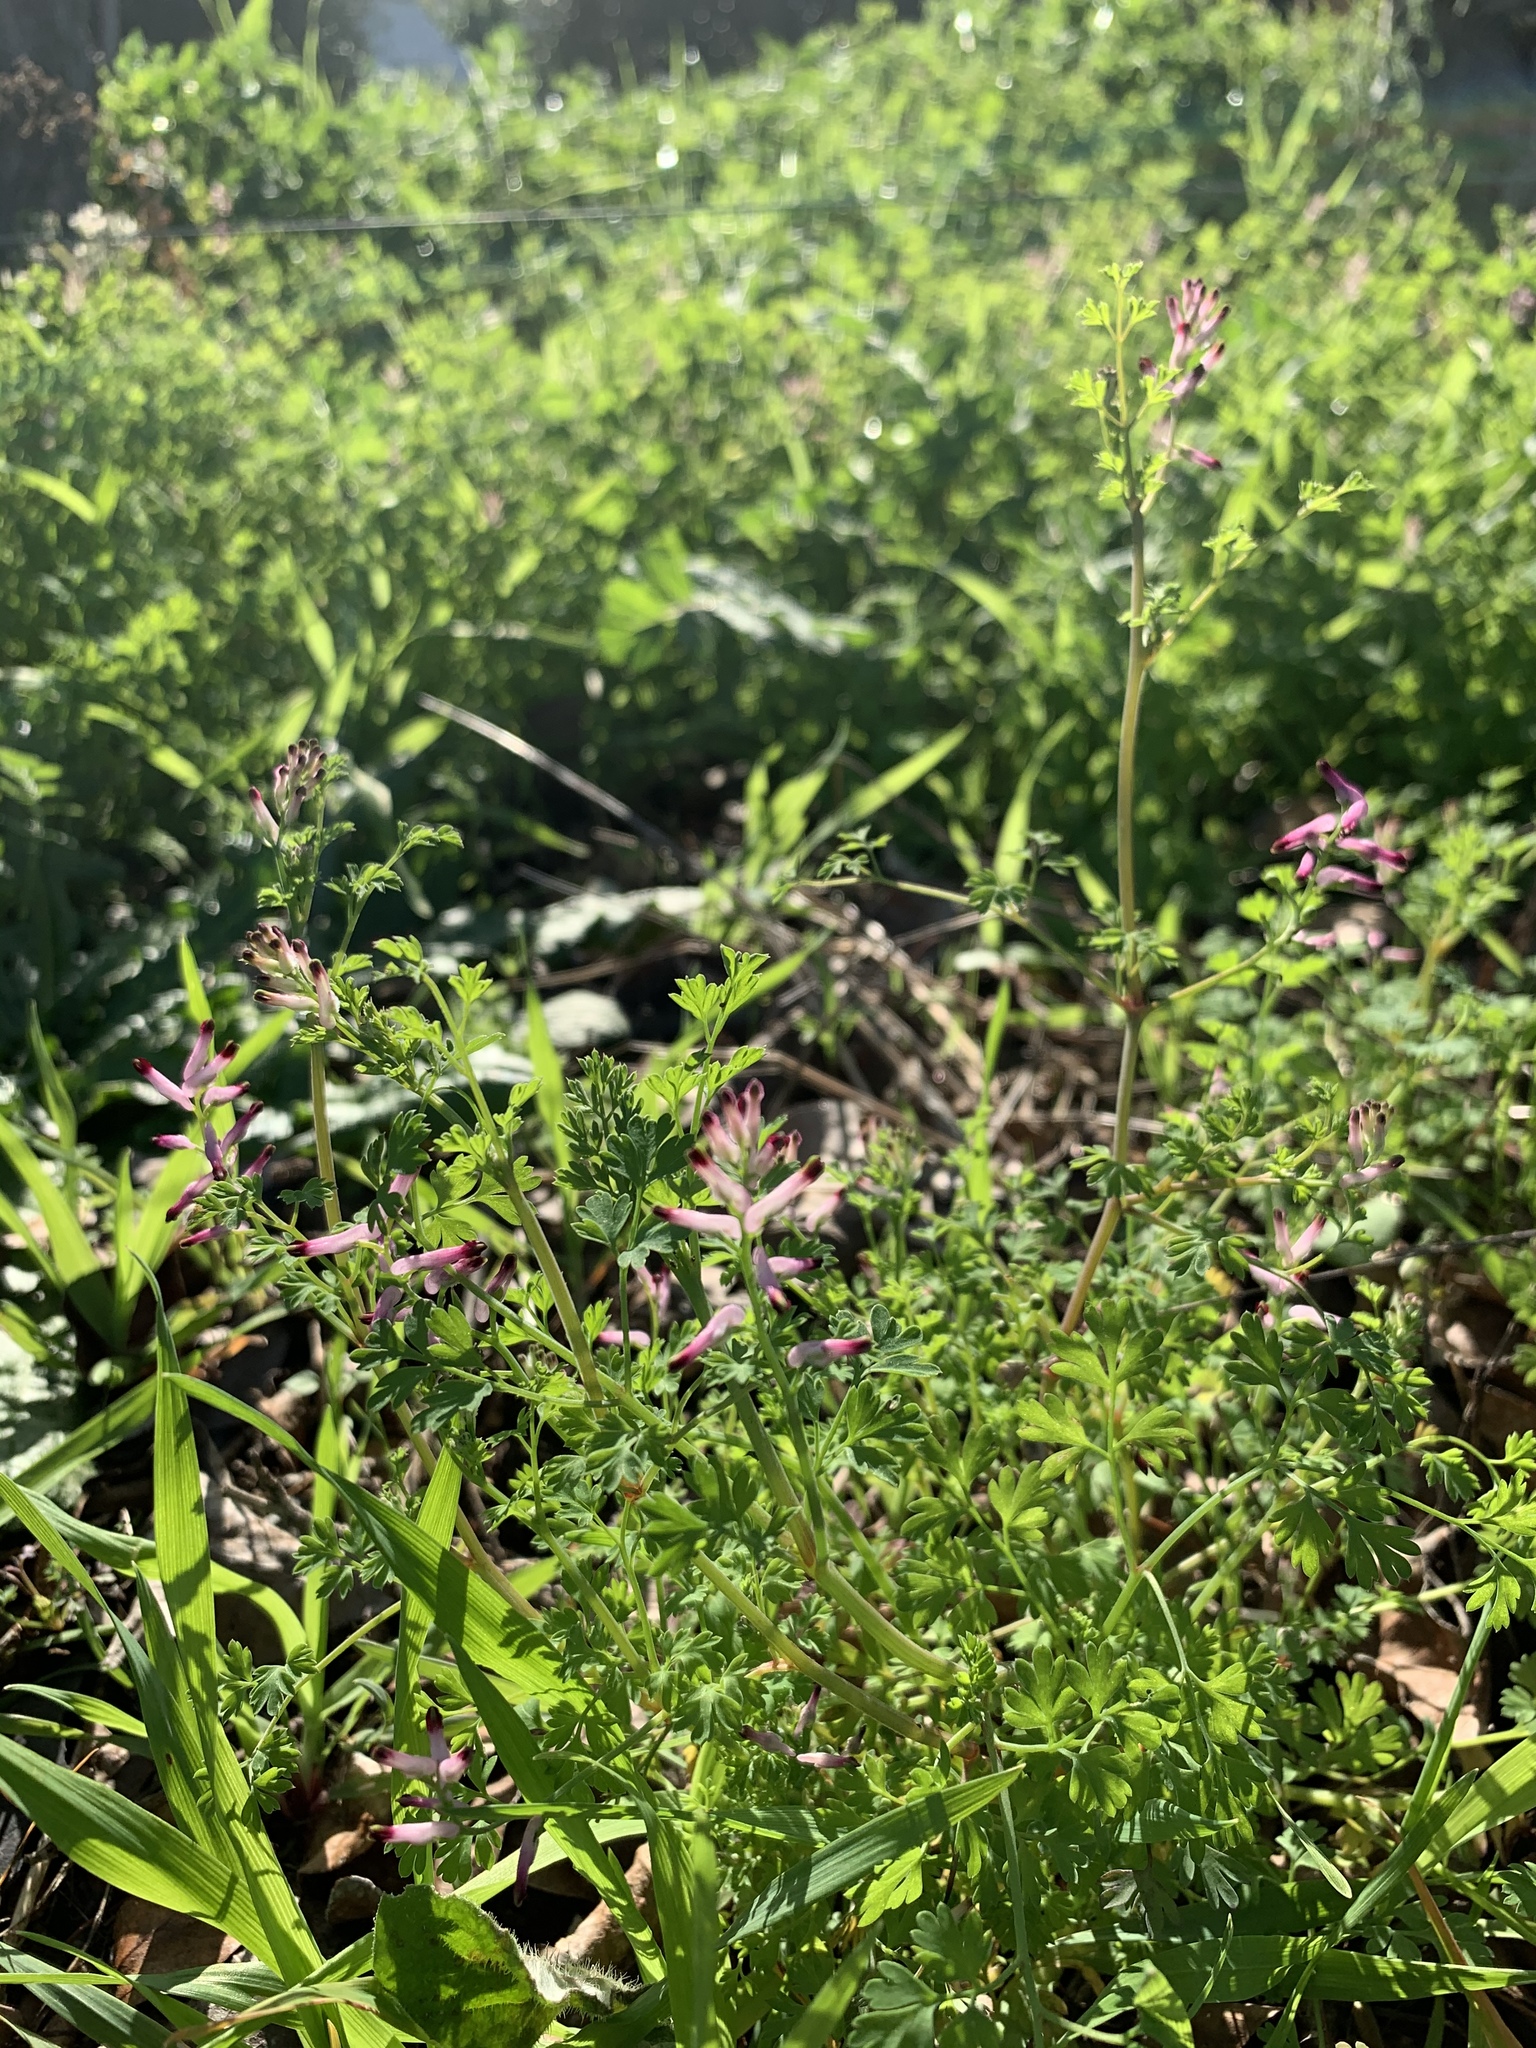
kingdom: Plantae
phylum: Tracheophyta
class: Magnoliopsida
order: Ranunculales
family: Papaveraceae
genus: Fumaria
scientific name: Fumaria muralis
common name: Common ramping-fumitory
